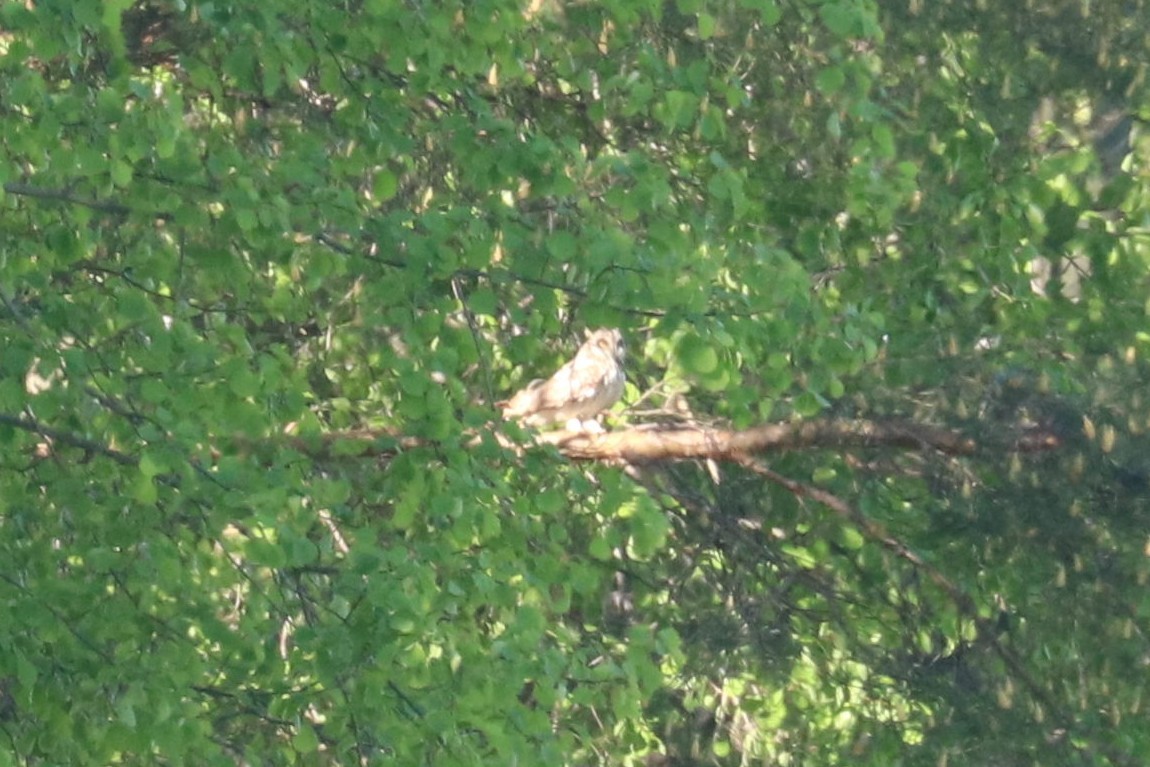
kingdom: Animalia
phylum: Chordata
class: Aves
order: Strigiformes
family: Strigidae
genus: Asio
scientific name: Asio flammeus
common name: Short-eared owl
